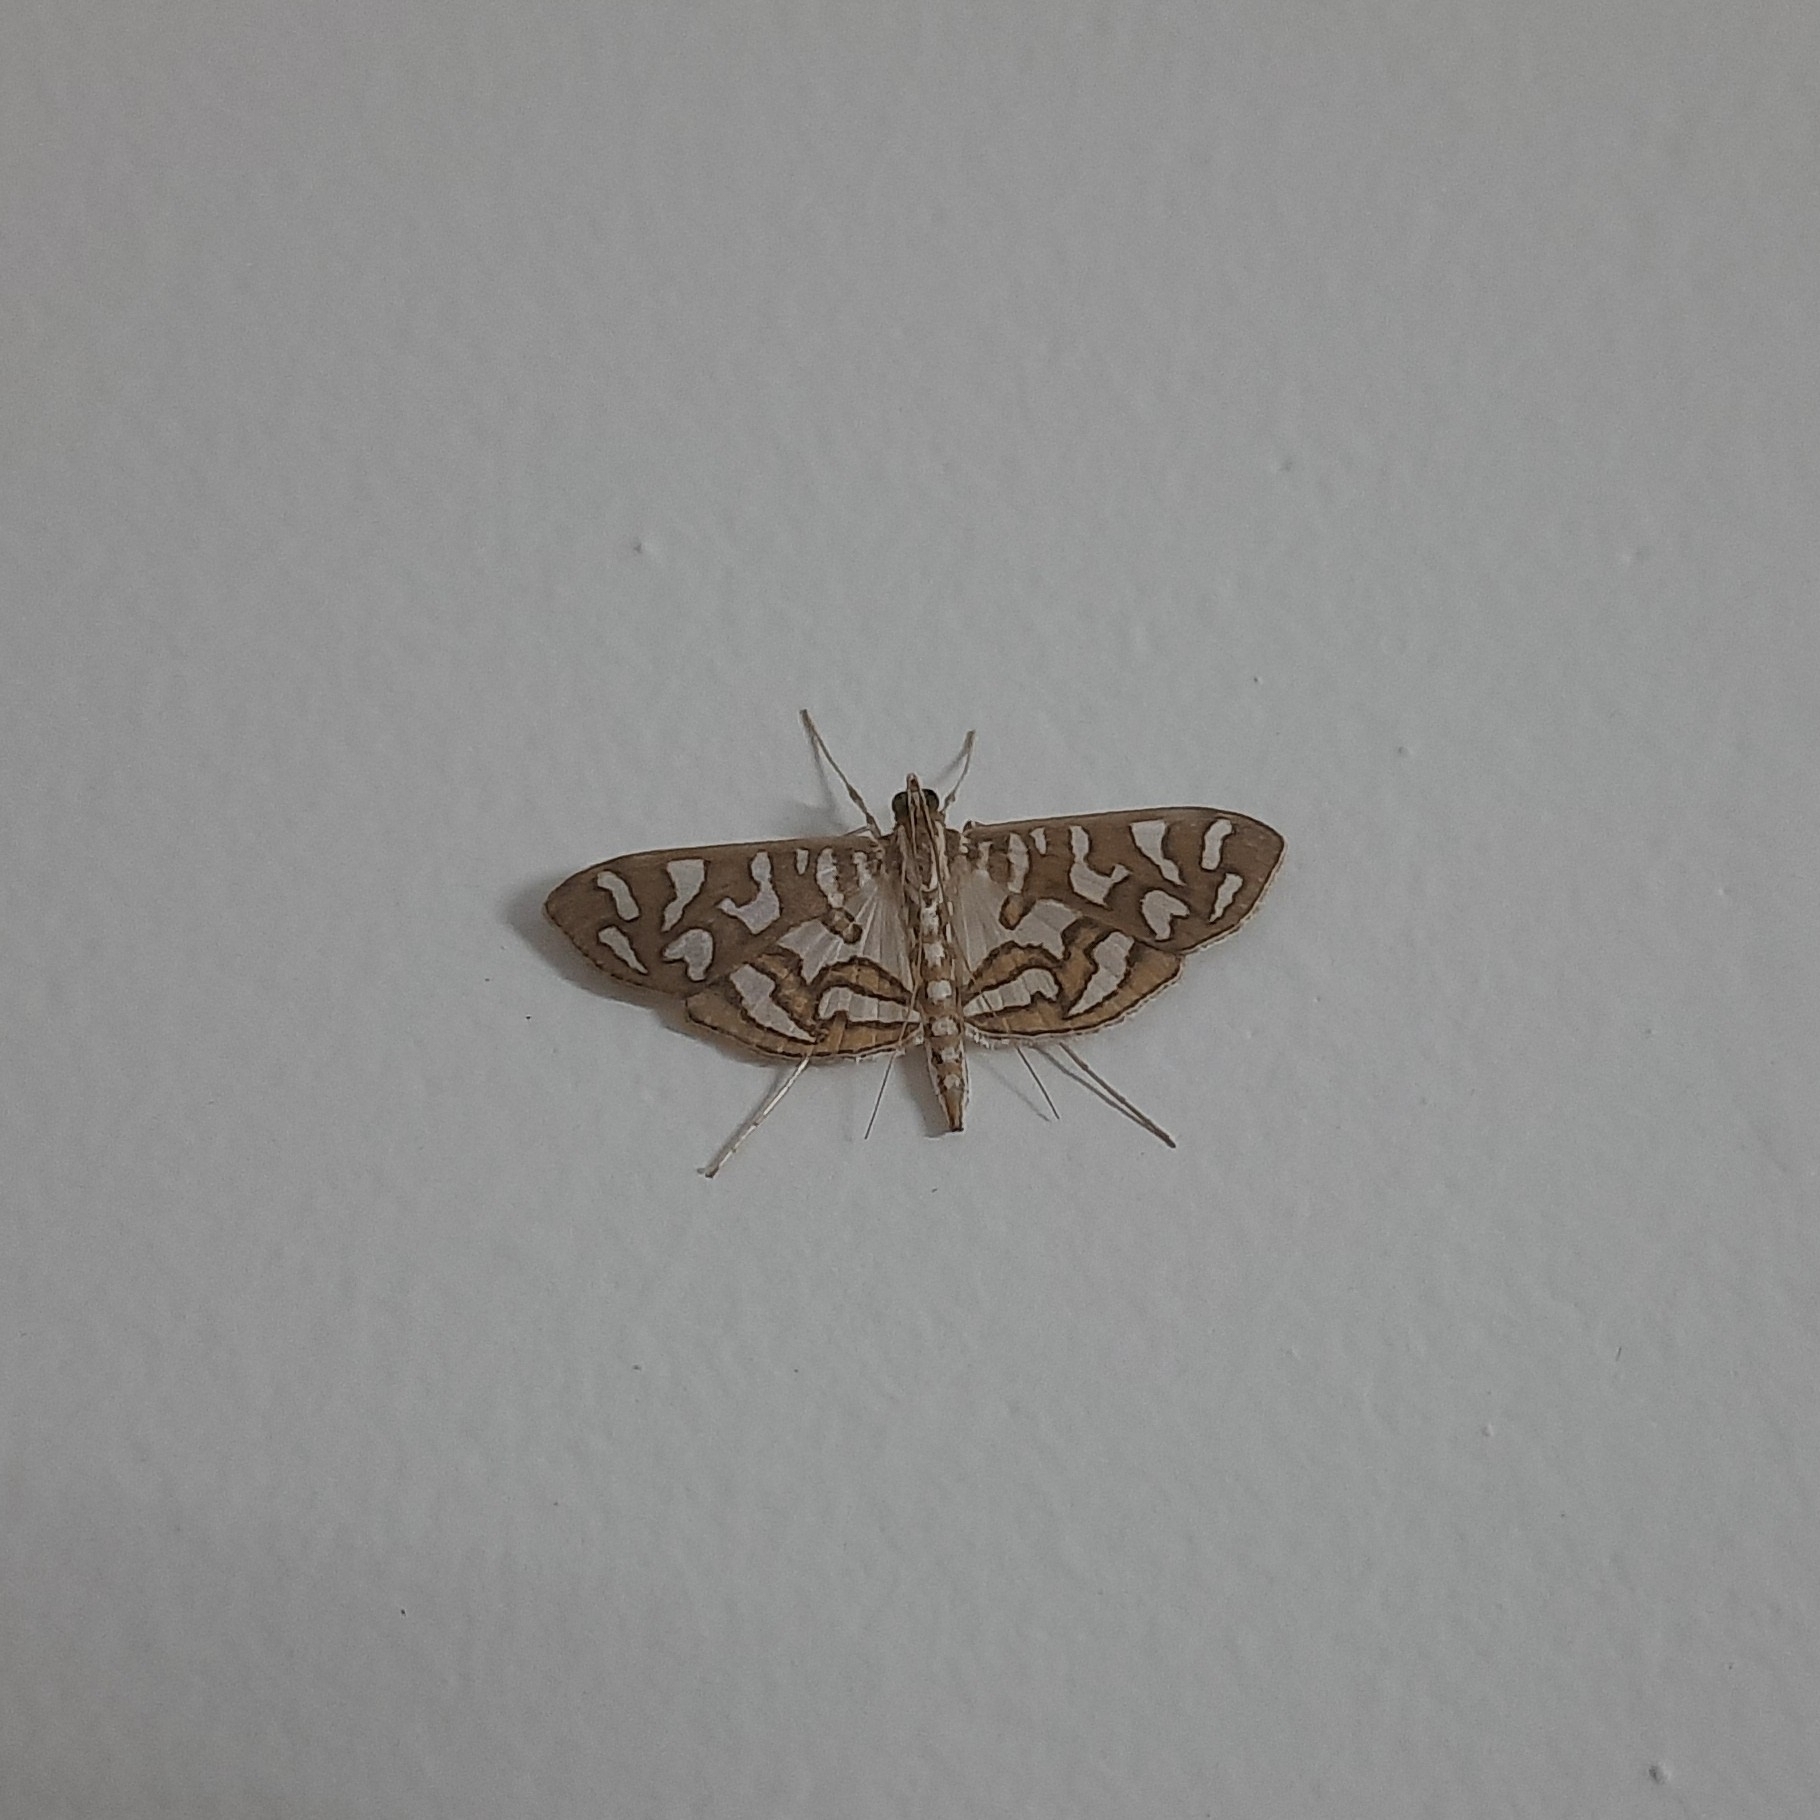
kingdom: Animalia
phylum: Arthropoda
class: Insecta
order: Lepidoptera
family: Crambidae
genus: Nausinoe
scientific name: Nausinoe perspectata
